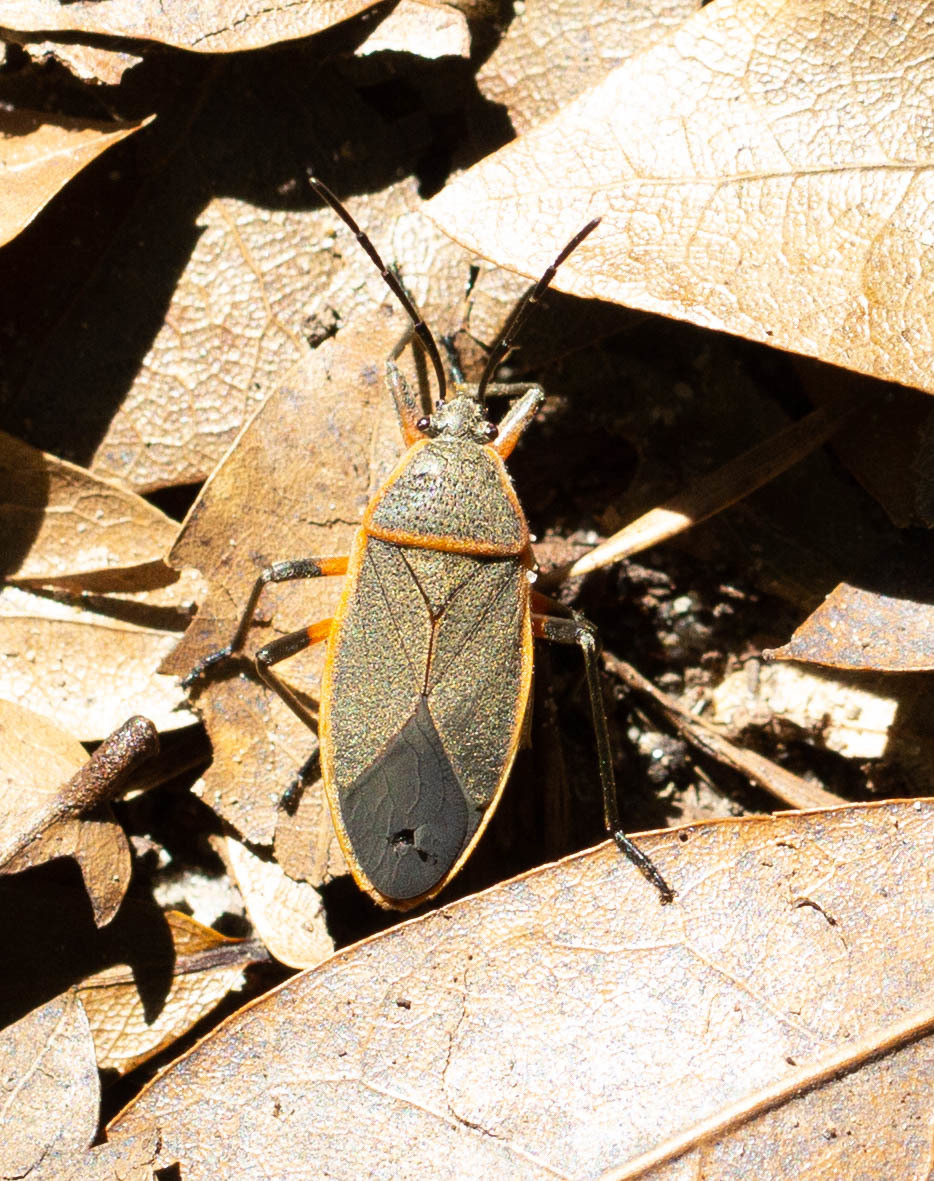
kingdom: Animalia
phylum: Arthropoda
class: Insecta
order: Hemiptera
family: Largidae
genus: Largus
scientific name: Largus succinctus
